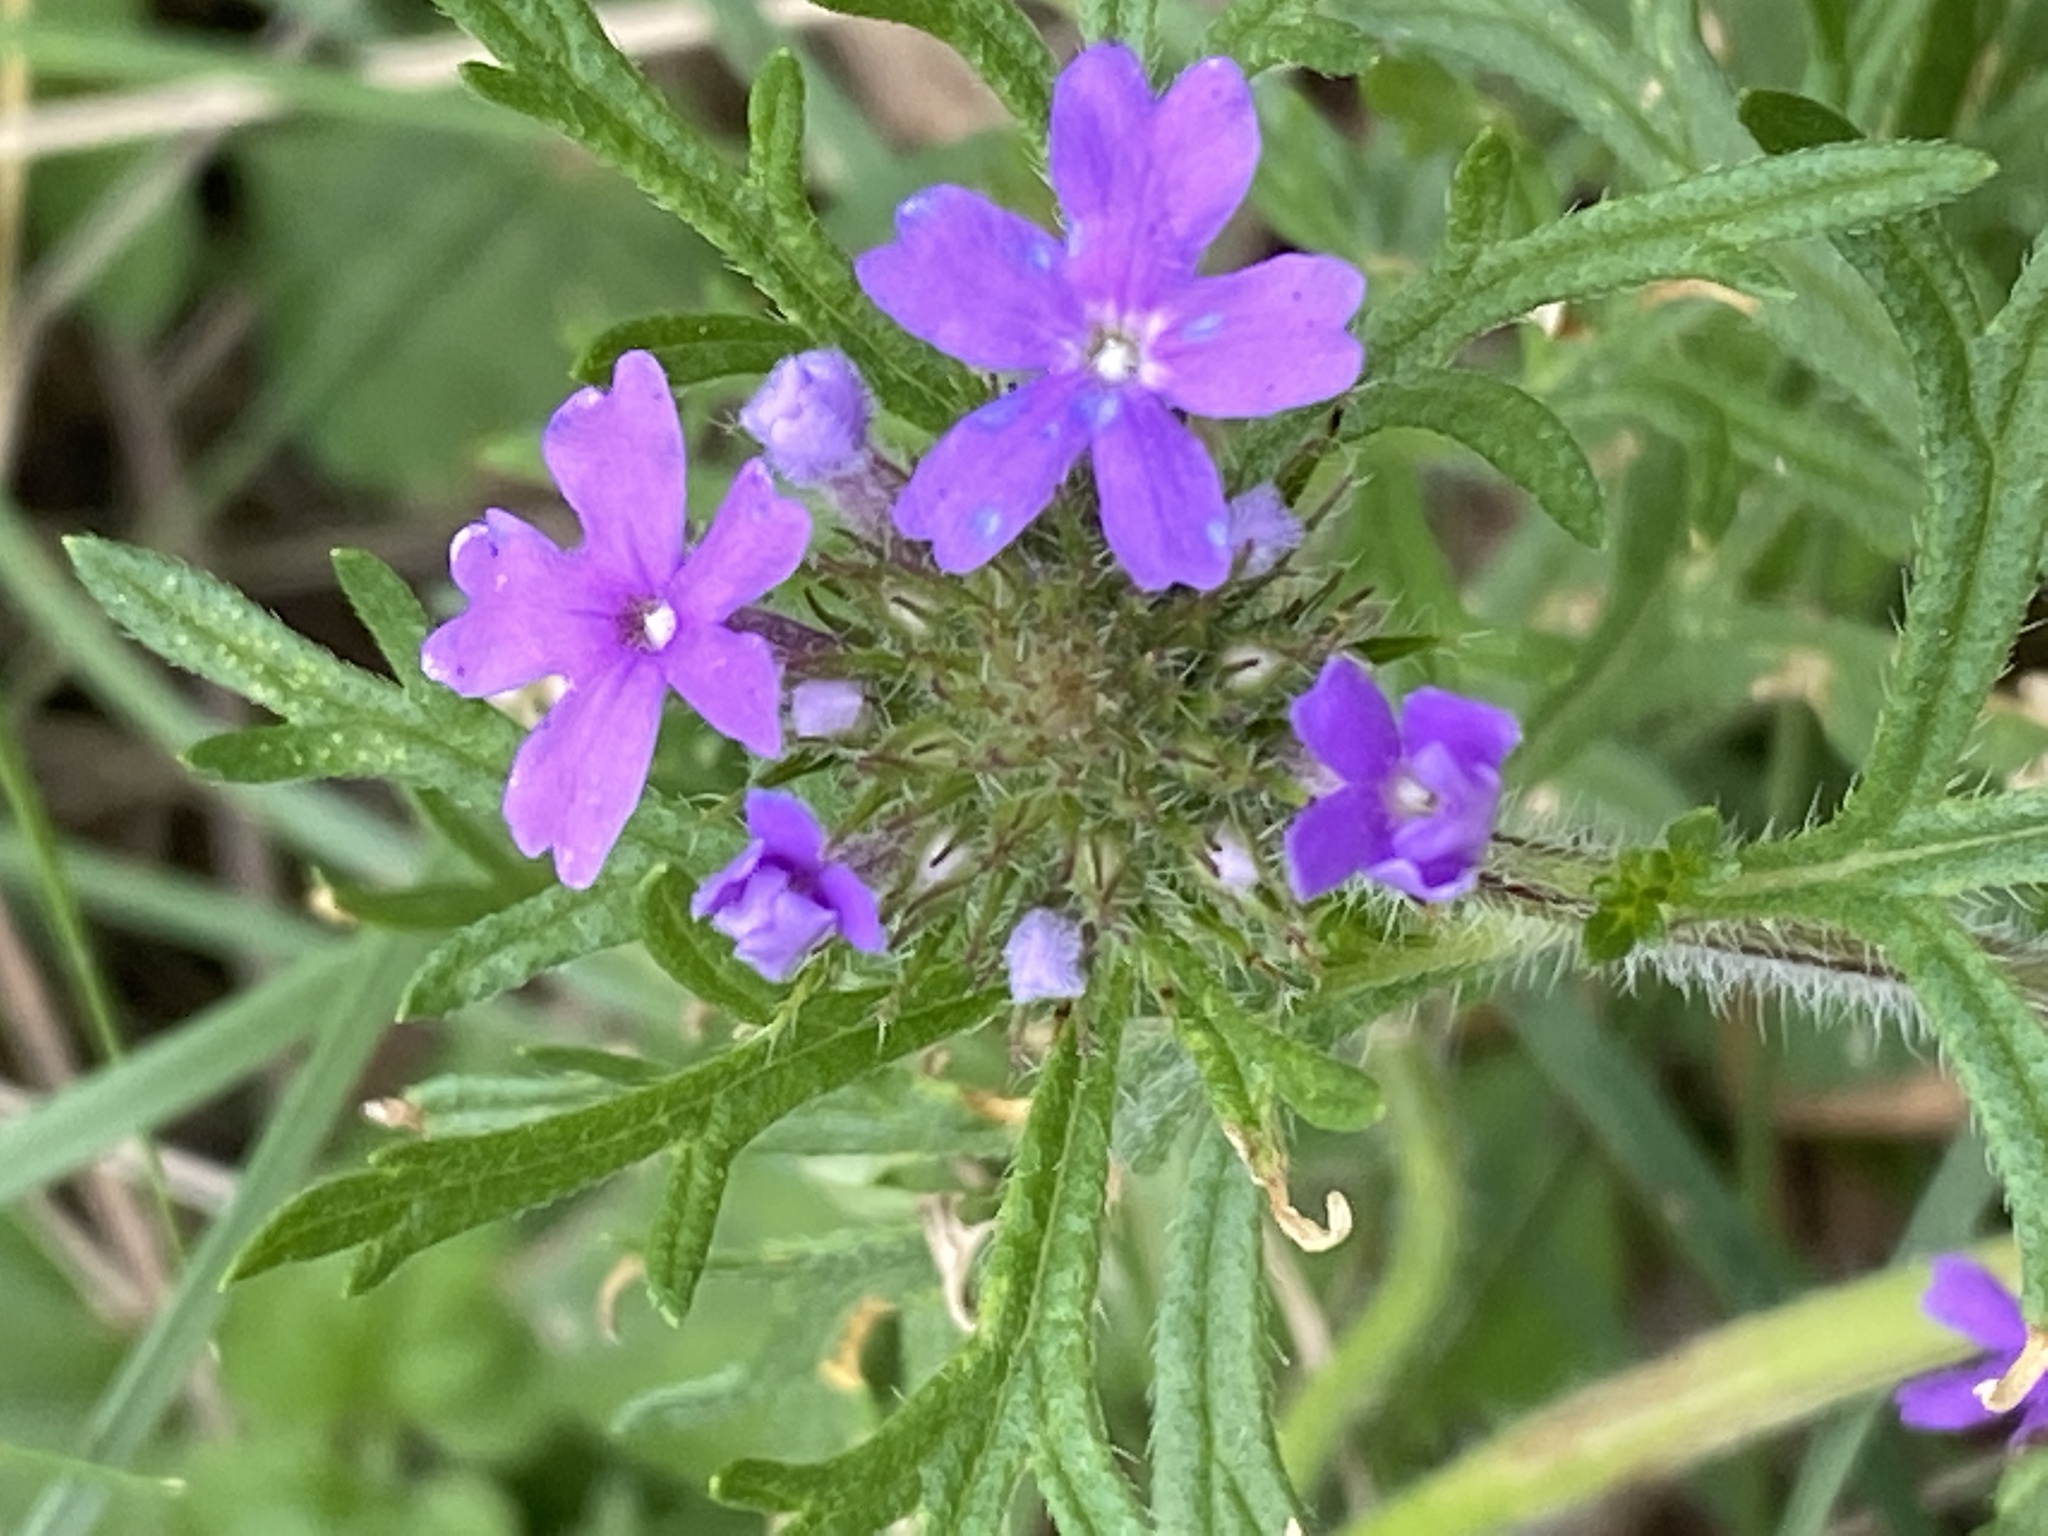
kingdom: Plantae
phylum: Tracheophyta
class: Magnoliopsida
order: Lamiales
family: Verbenaceae
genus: Verbena
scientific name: Verbena bipinnatifida
